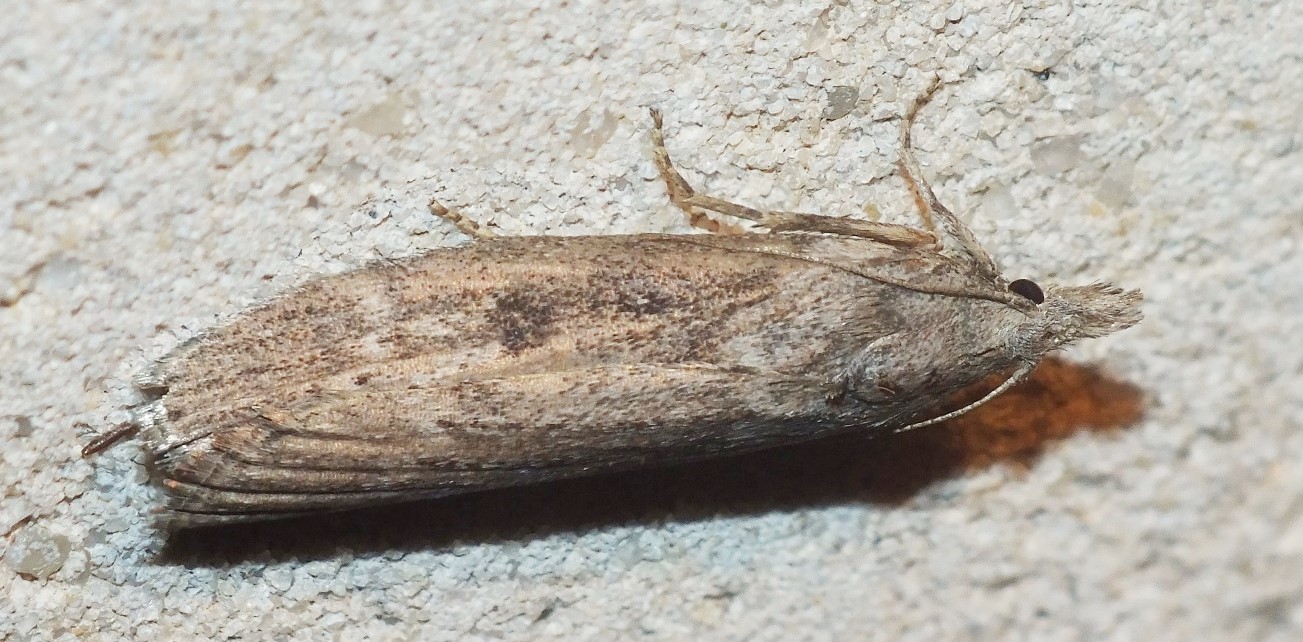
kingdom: Animalia
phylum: Arthropoda
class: Insecta
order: Lepidoptera
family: Pyralidae
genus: Lamoria
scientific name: Lamoria anella
